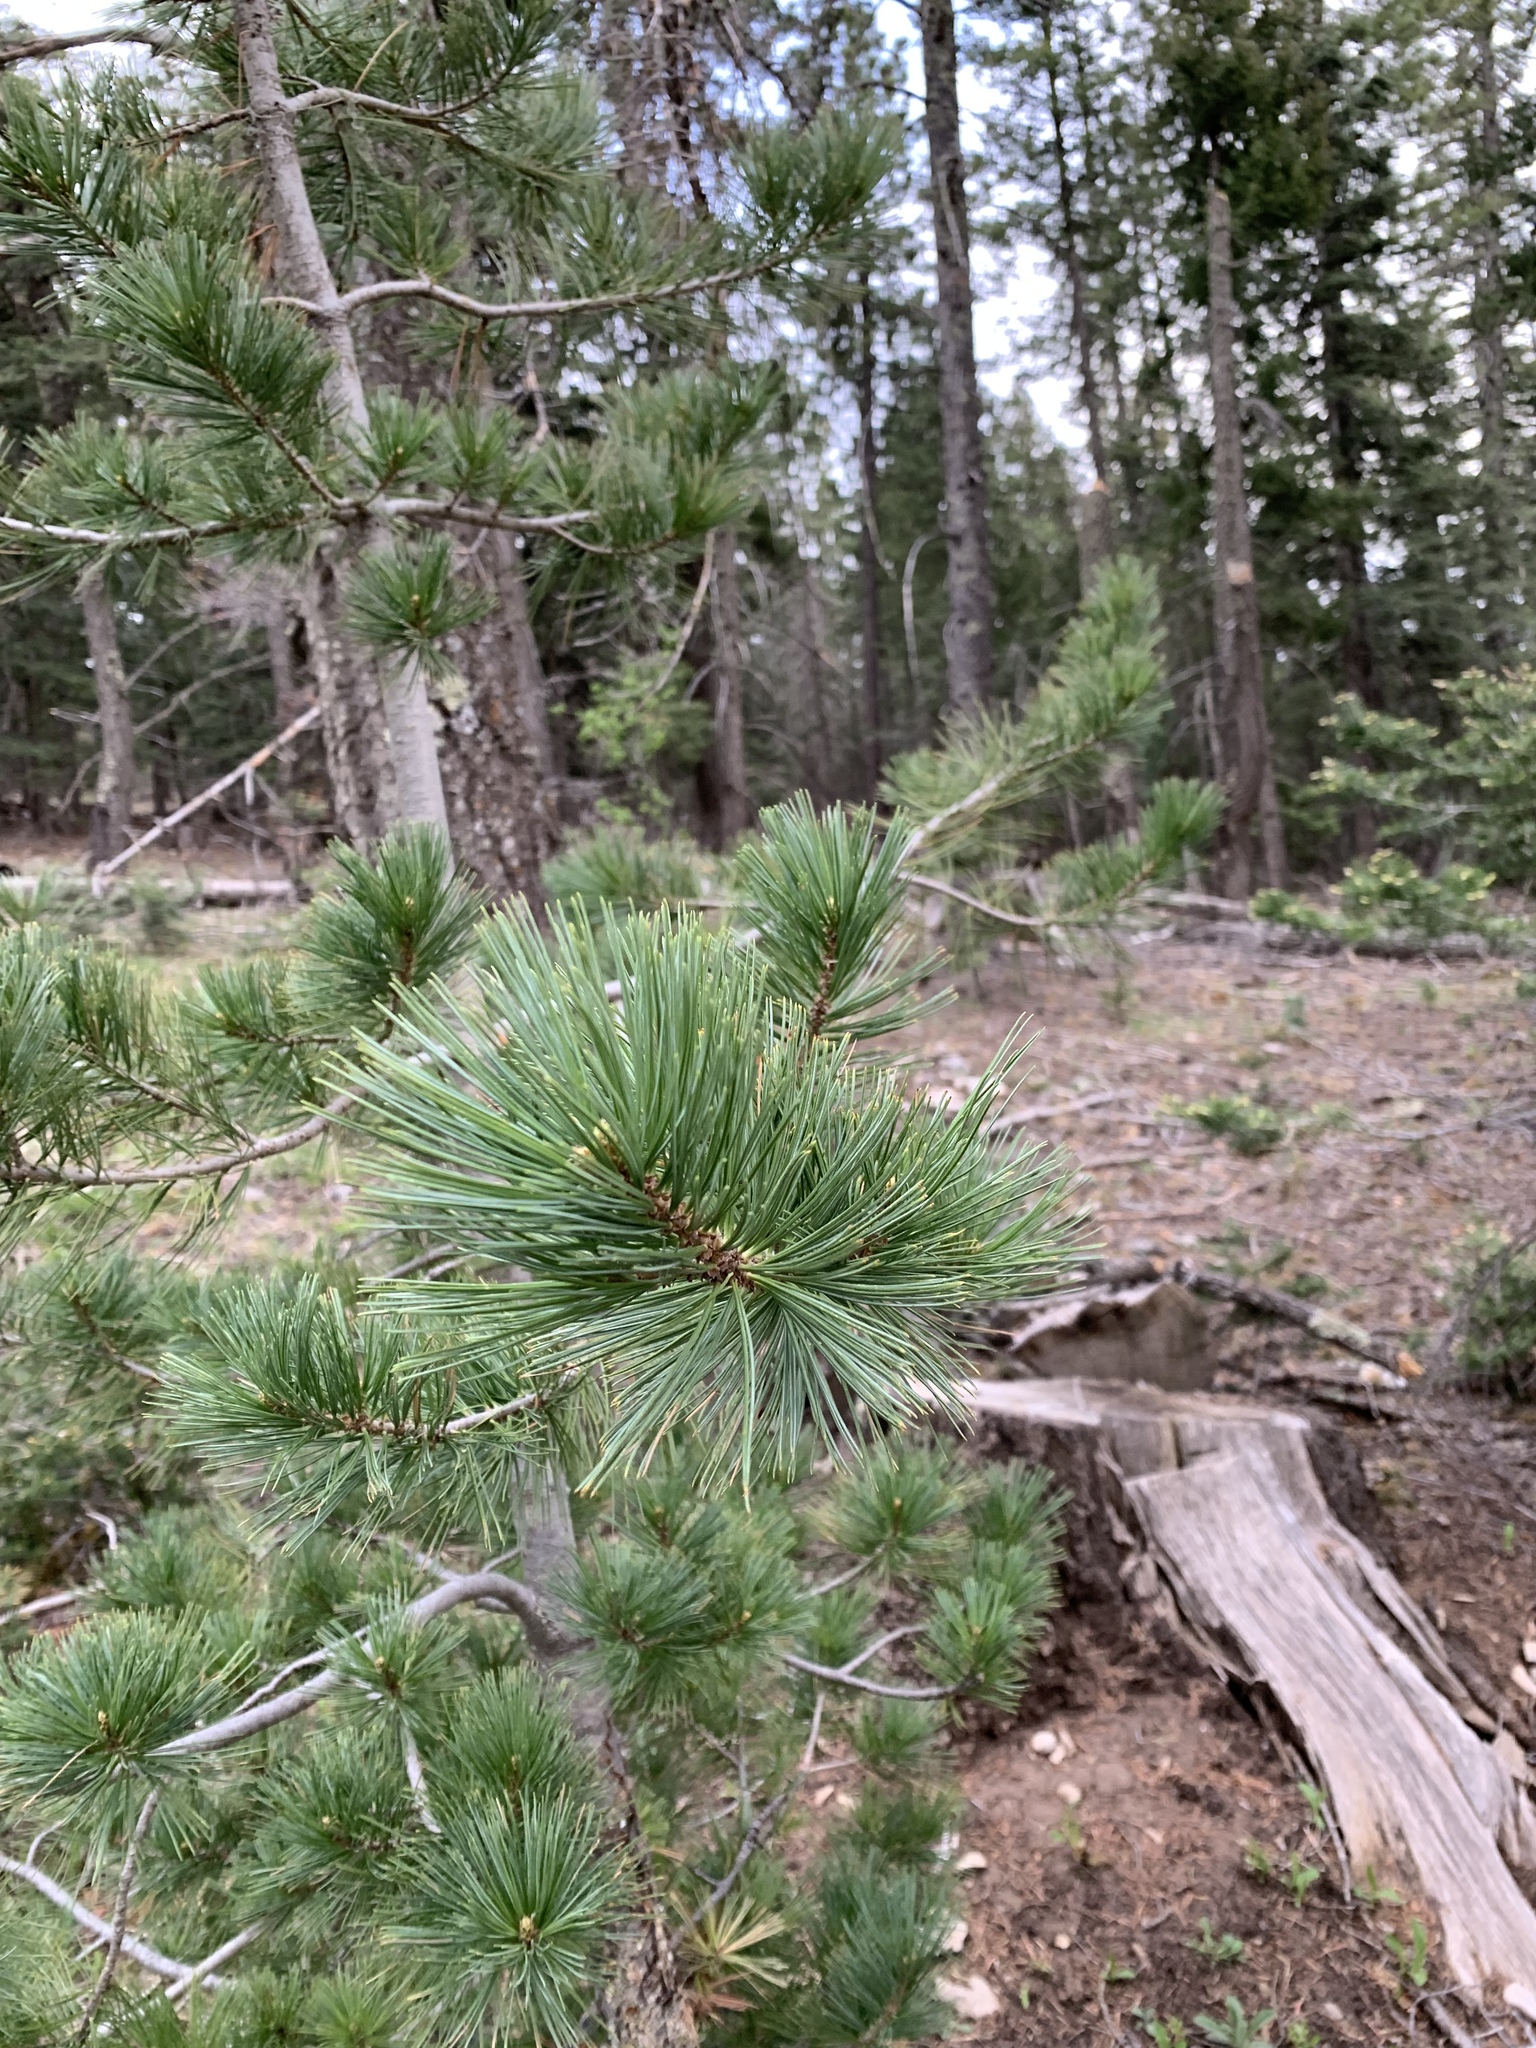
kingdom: Plantae
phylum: Tracheophyta
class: Pinopsida
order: Pinales
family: Pinaceae
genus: Pinus
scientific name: Pinus strobiformis
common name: Southwestern white pine
